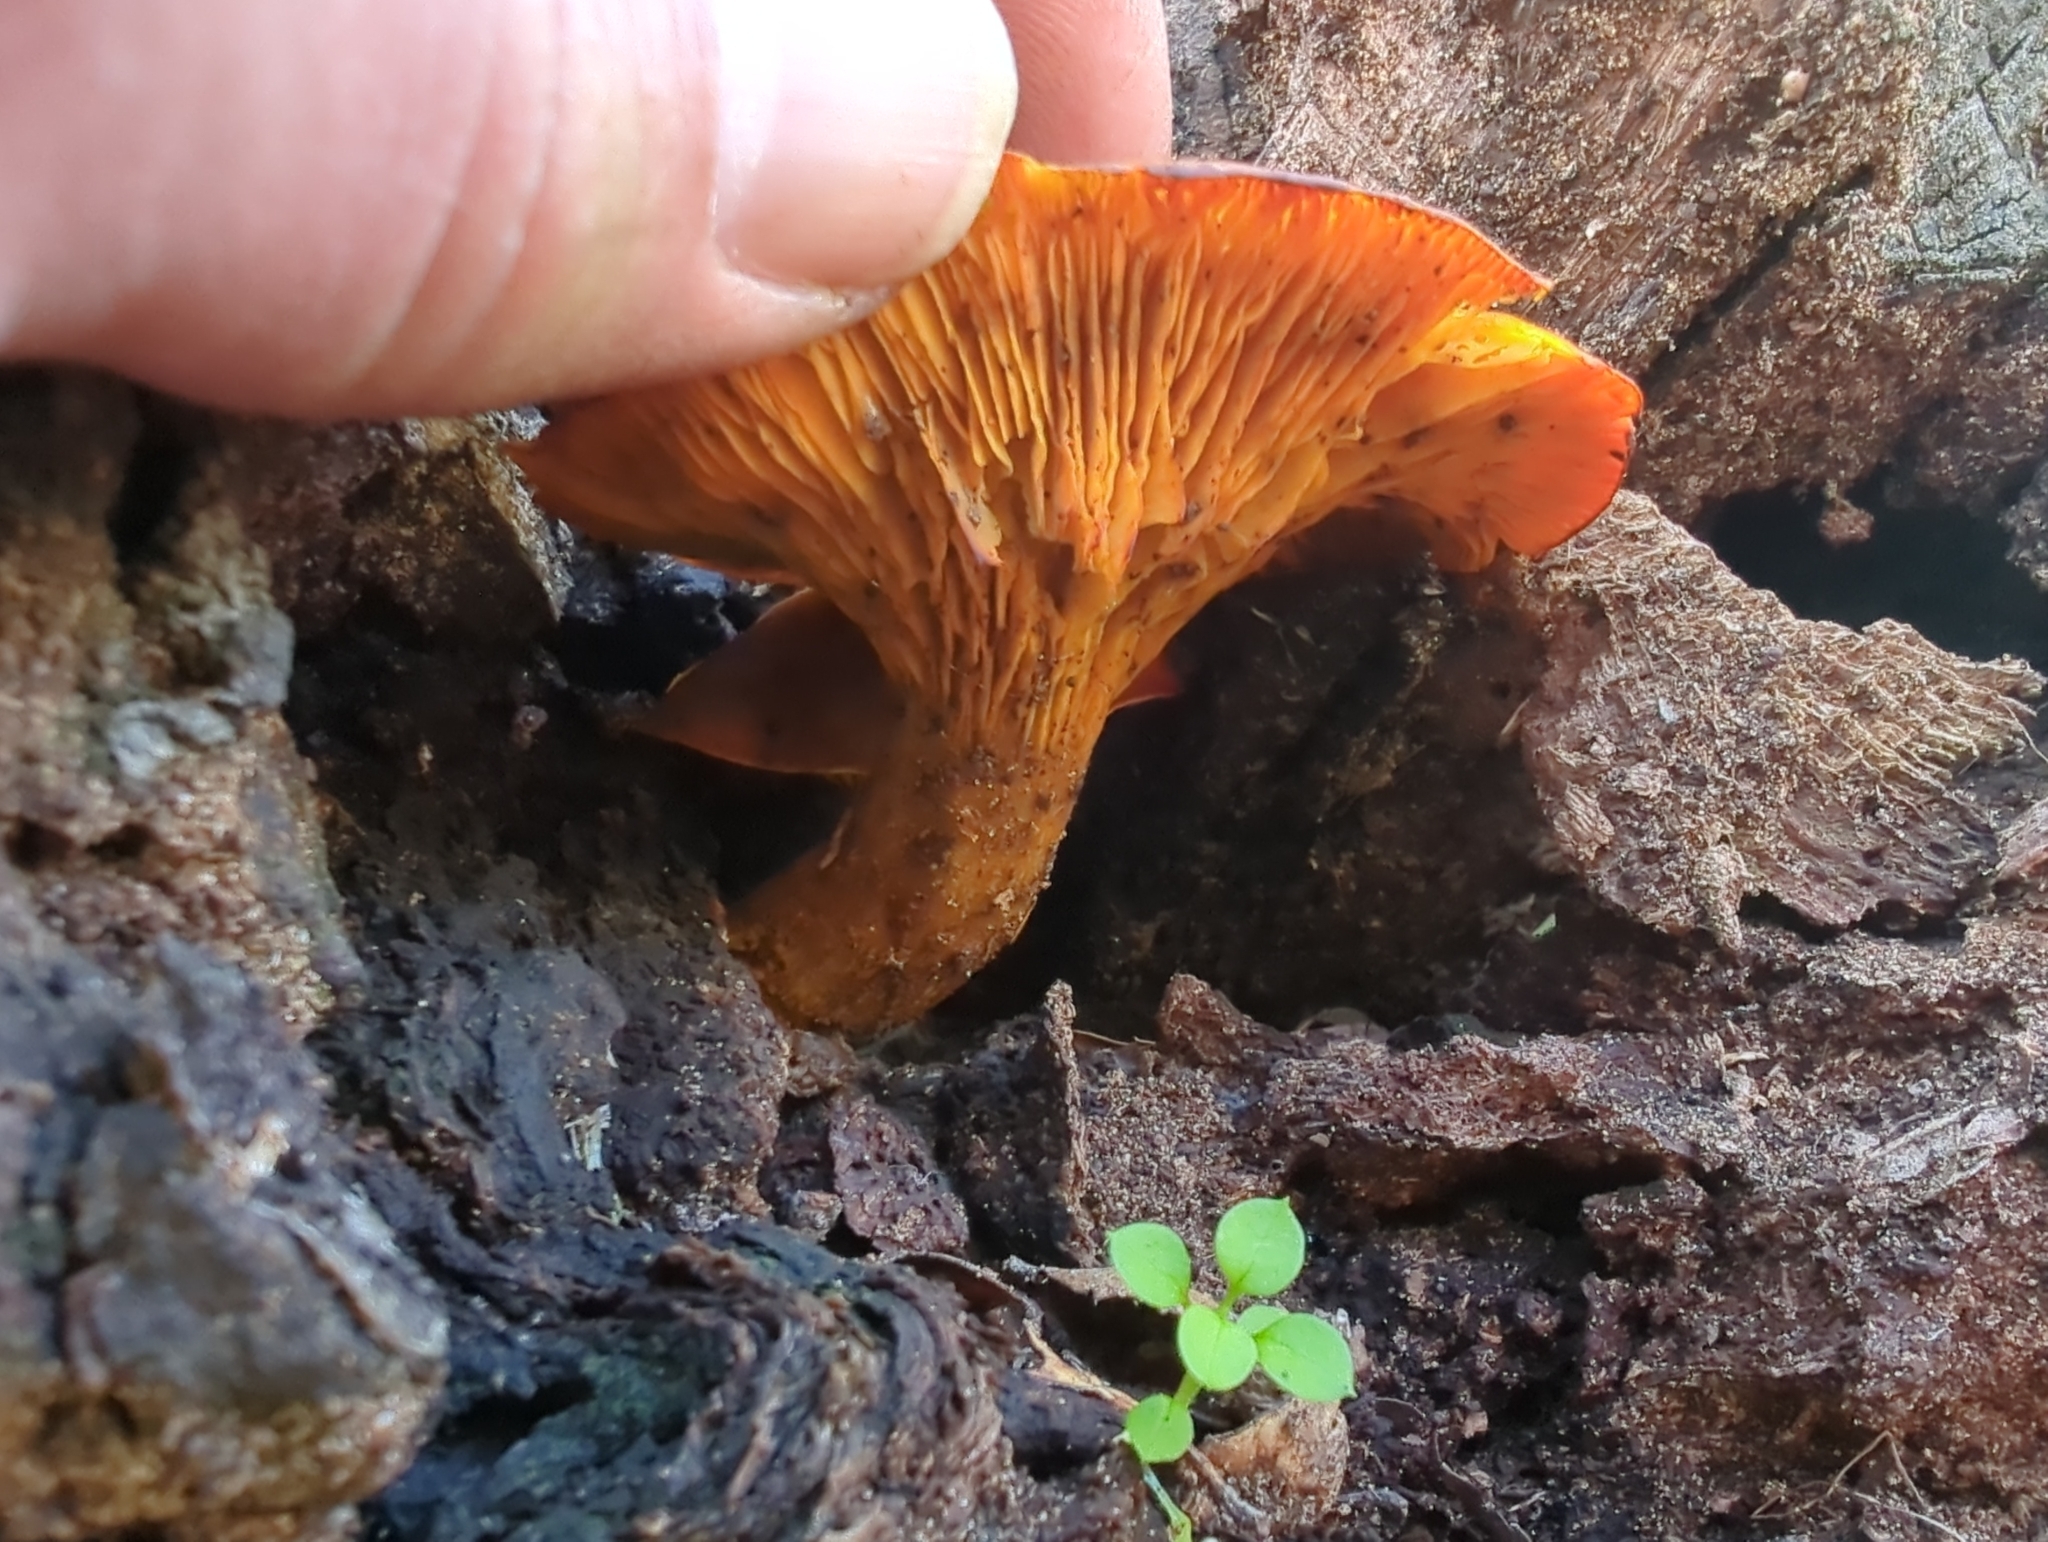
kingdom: Fungi
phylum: Basidiomycota
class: Agaricomycetes
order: Agaricales
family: Omphalotaceae
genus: Omphalotus
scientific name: Omphalotus olivascens
